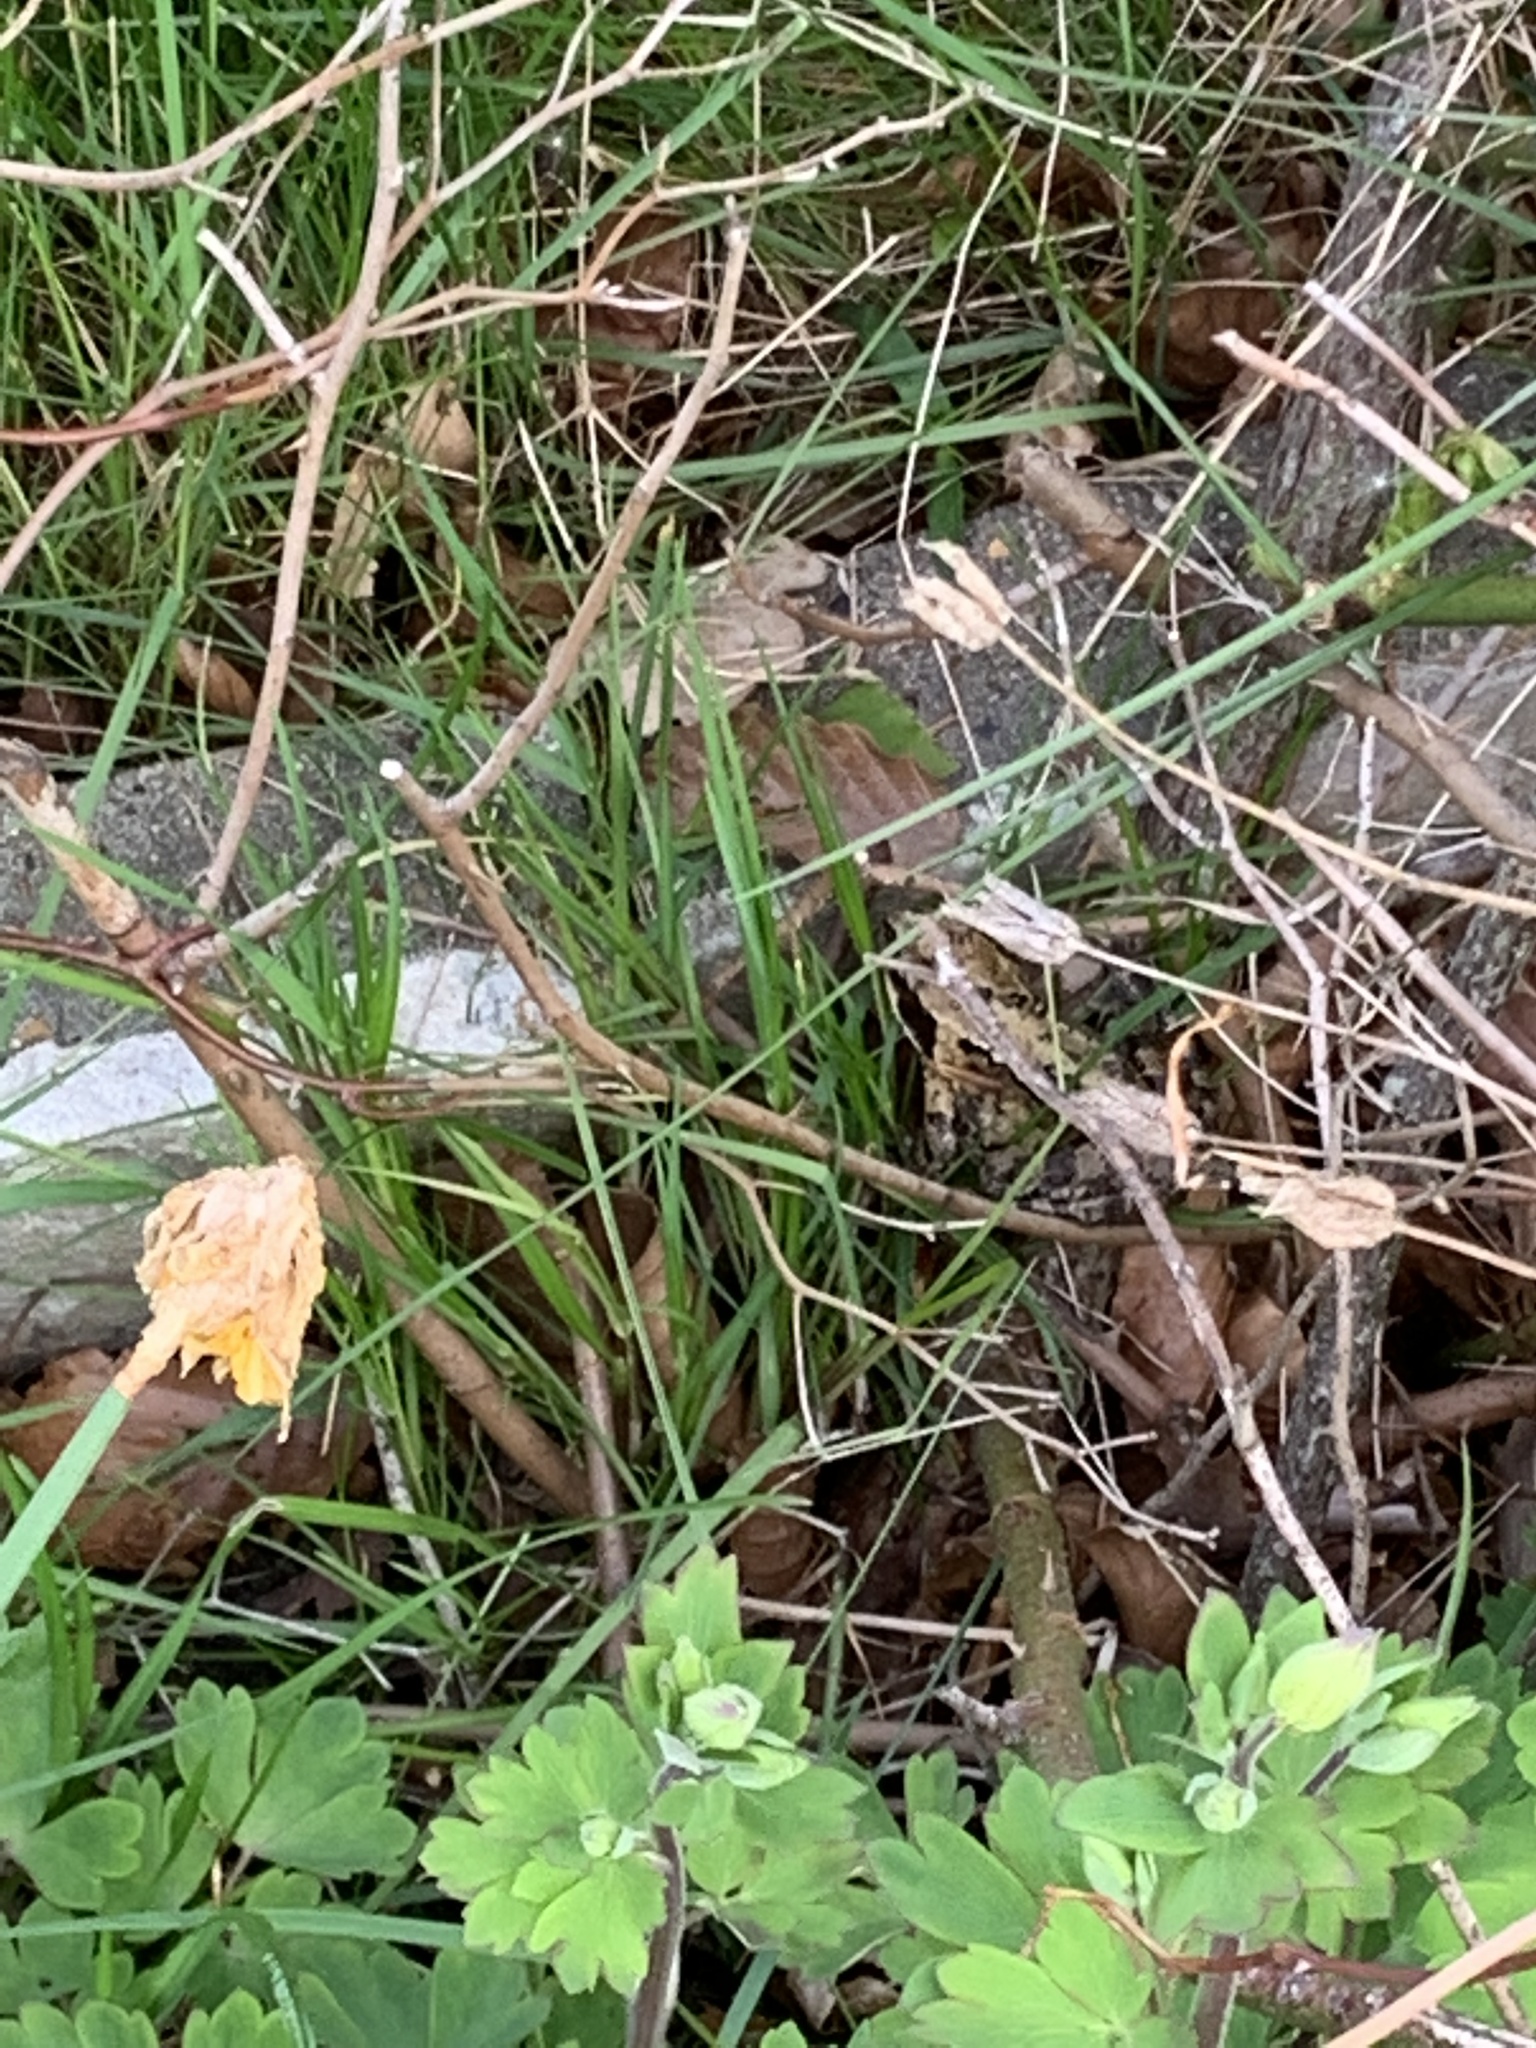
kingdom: Animalia
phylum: Chordata
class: Amphibia
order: Anura
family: Ranidae
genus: Rana
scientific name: Rana temporaria
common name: Common frog
